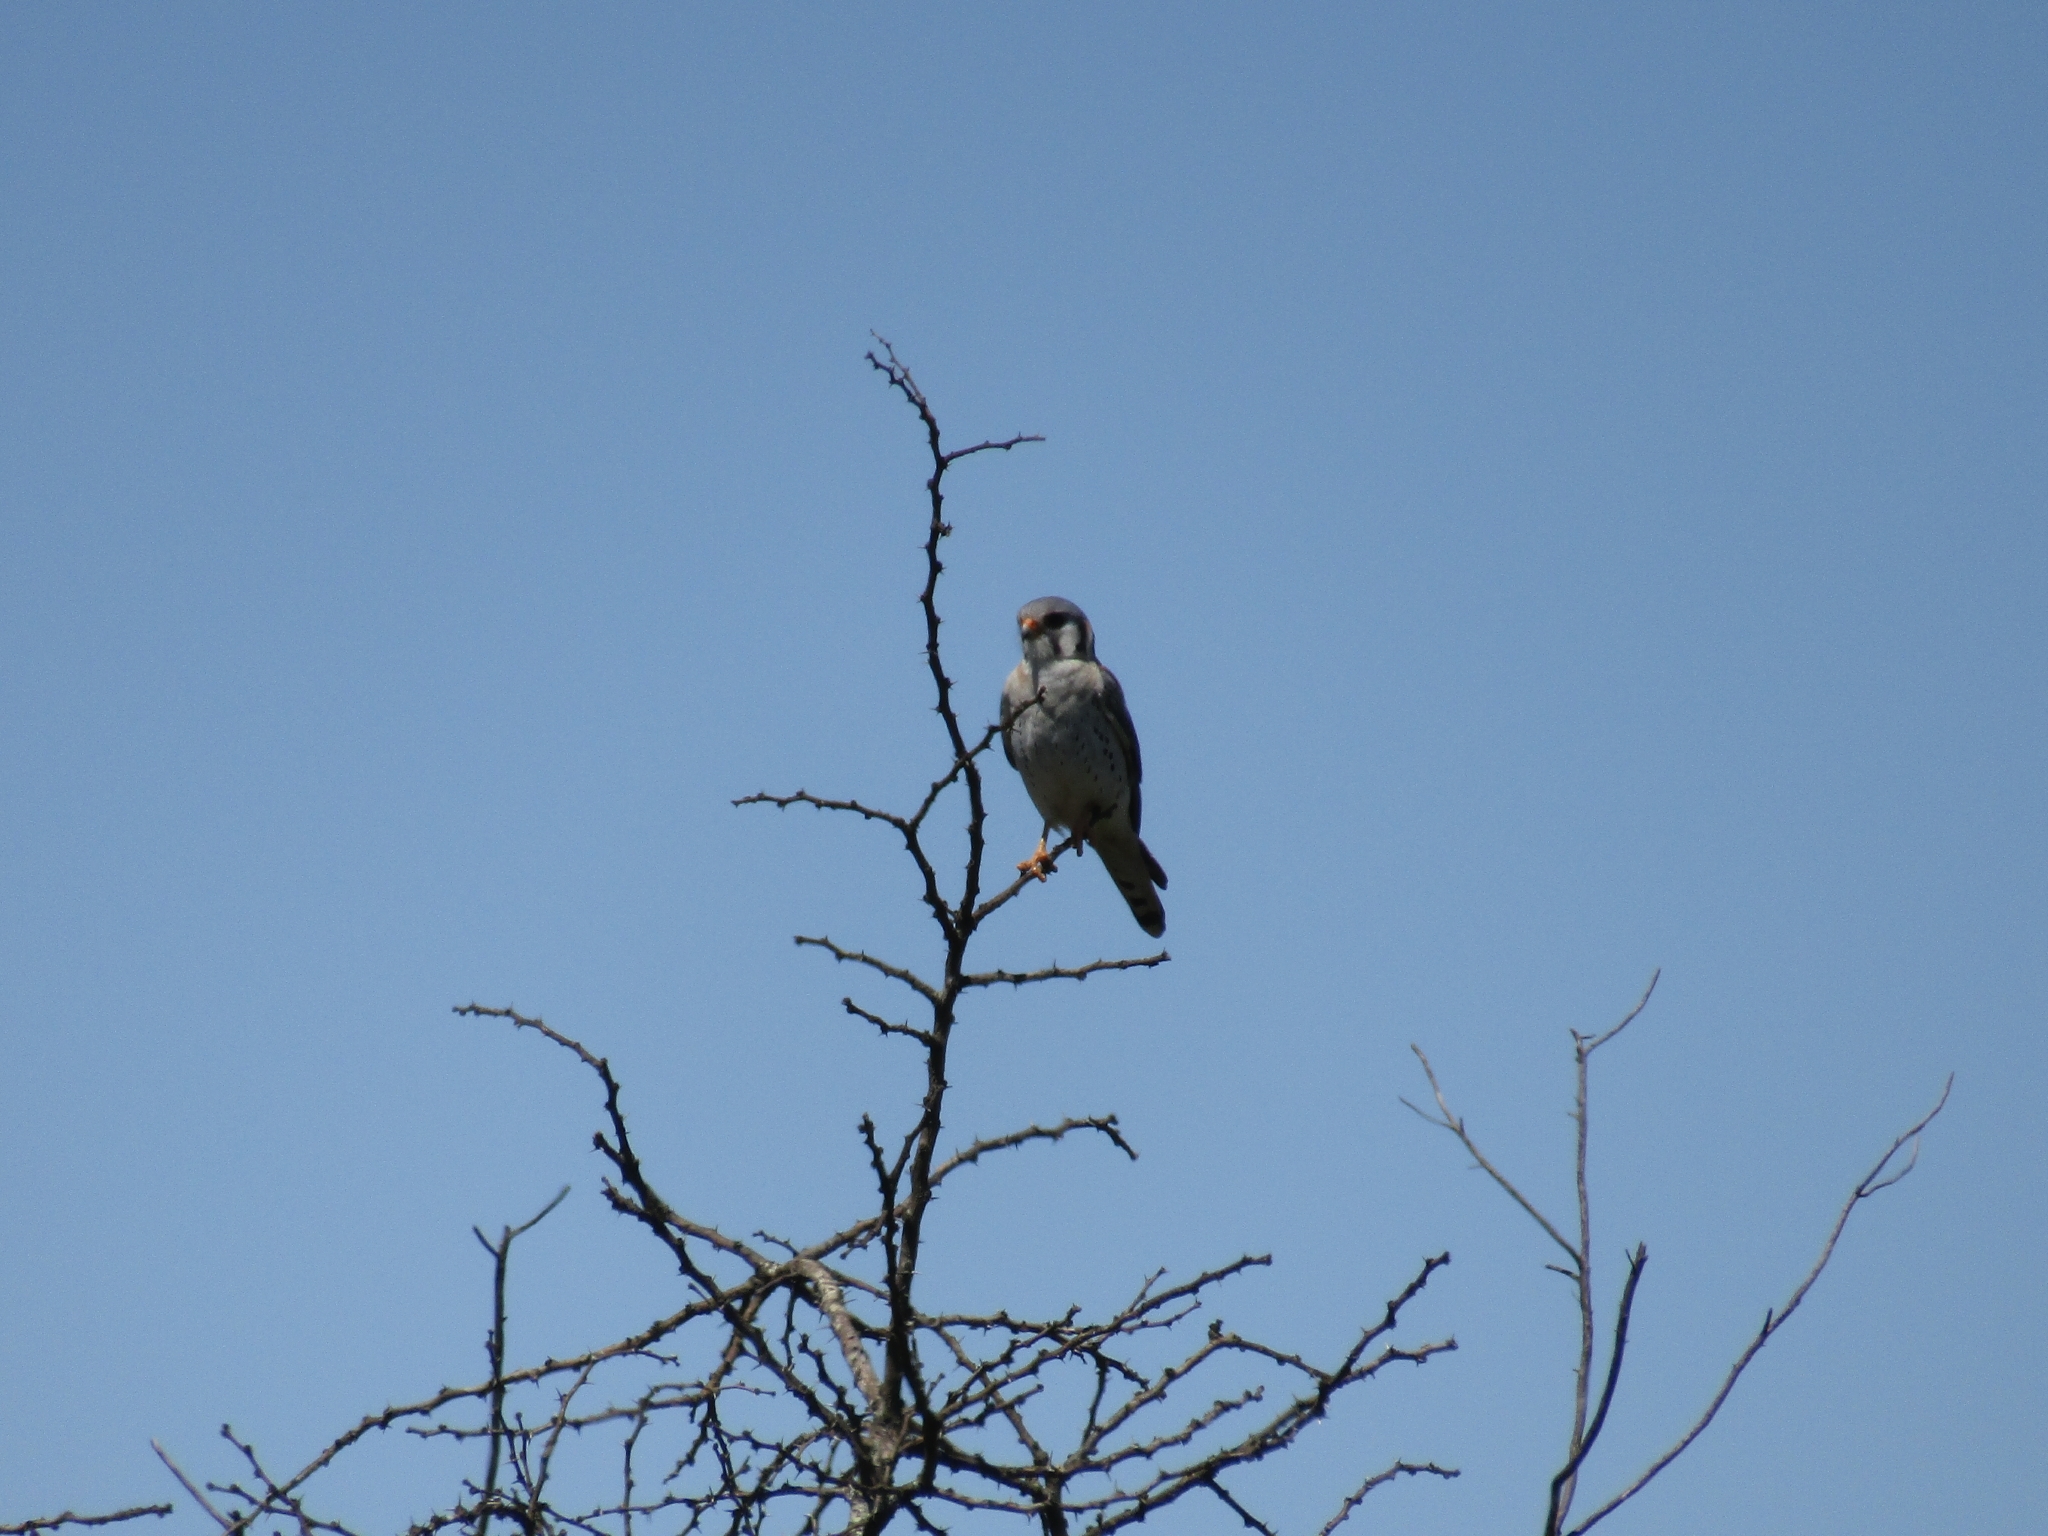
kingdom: Animalia
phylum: Chordata
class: Aves
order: Falconiformes
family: Falconidae
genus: Falco
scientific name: Falco sparverius
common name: American kestrel
